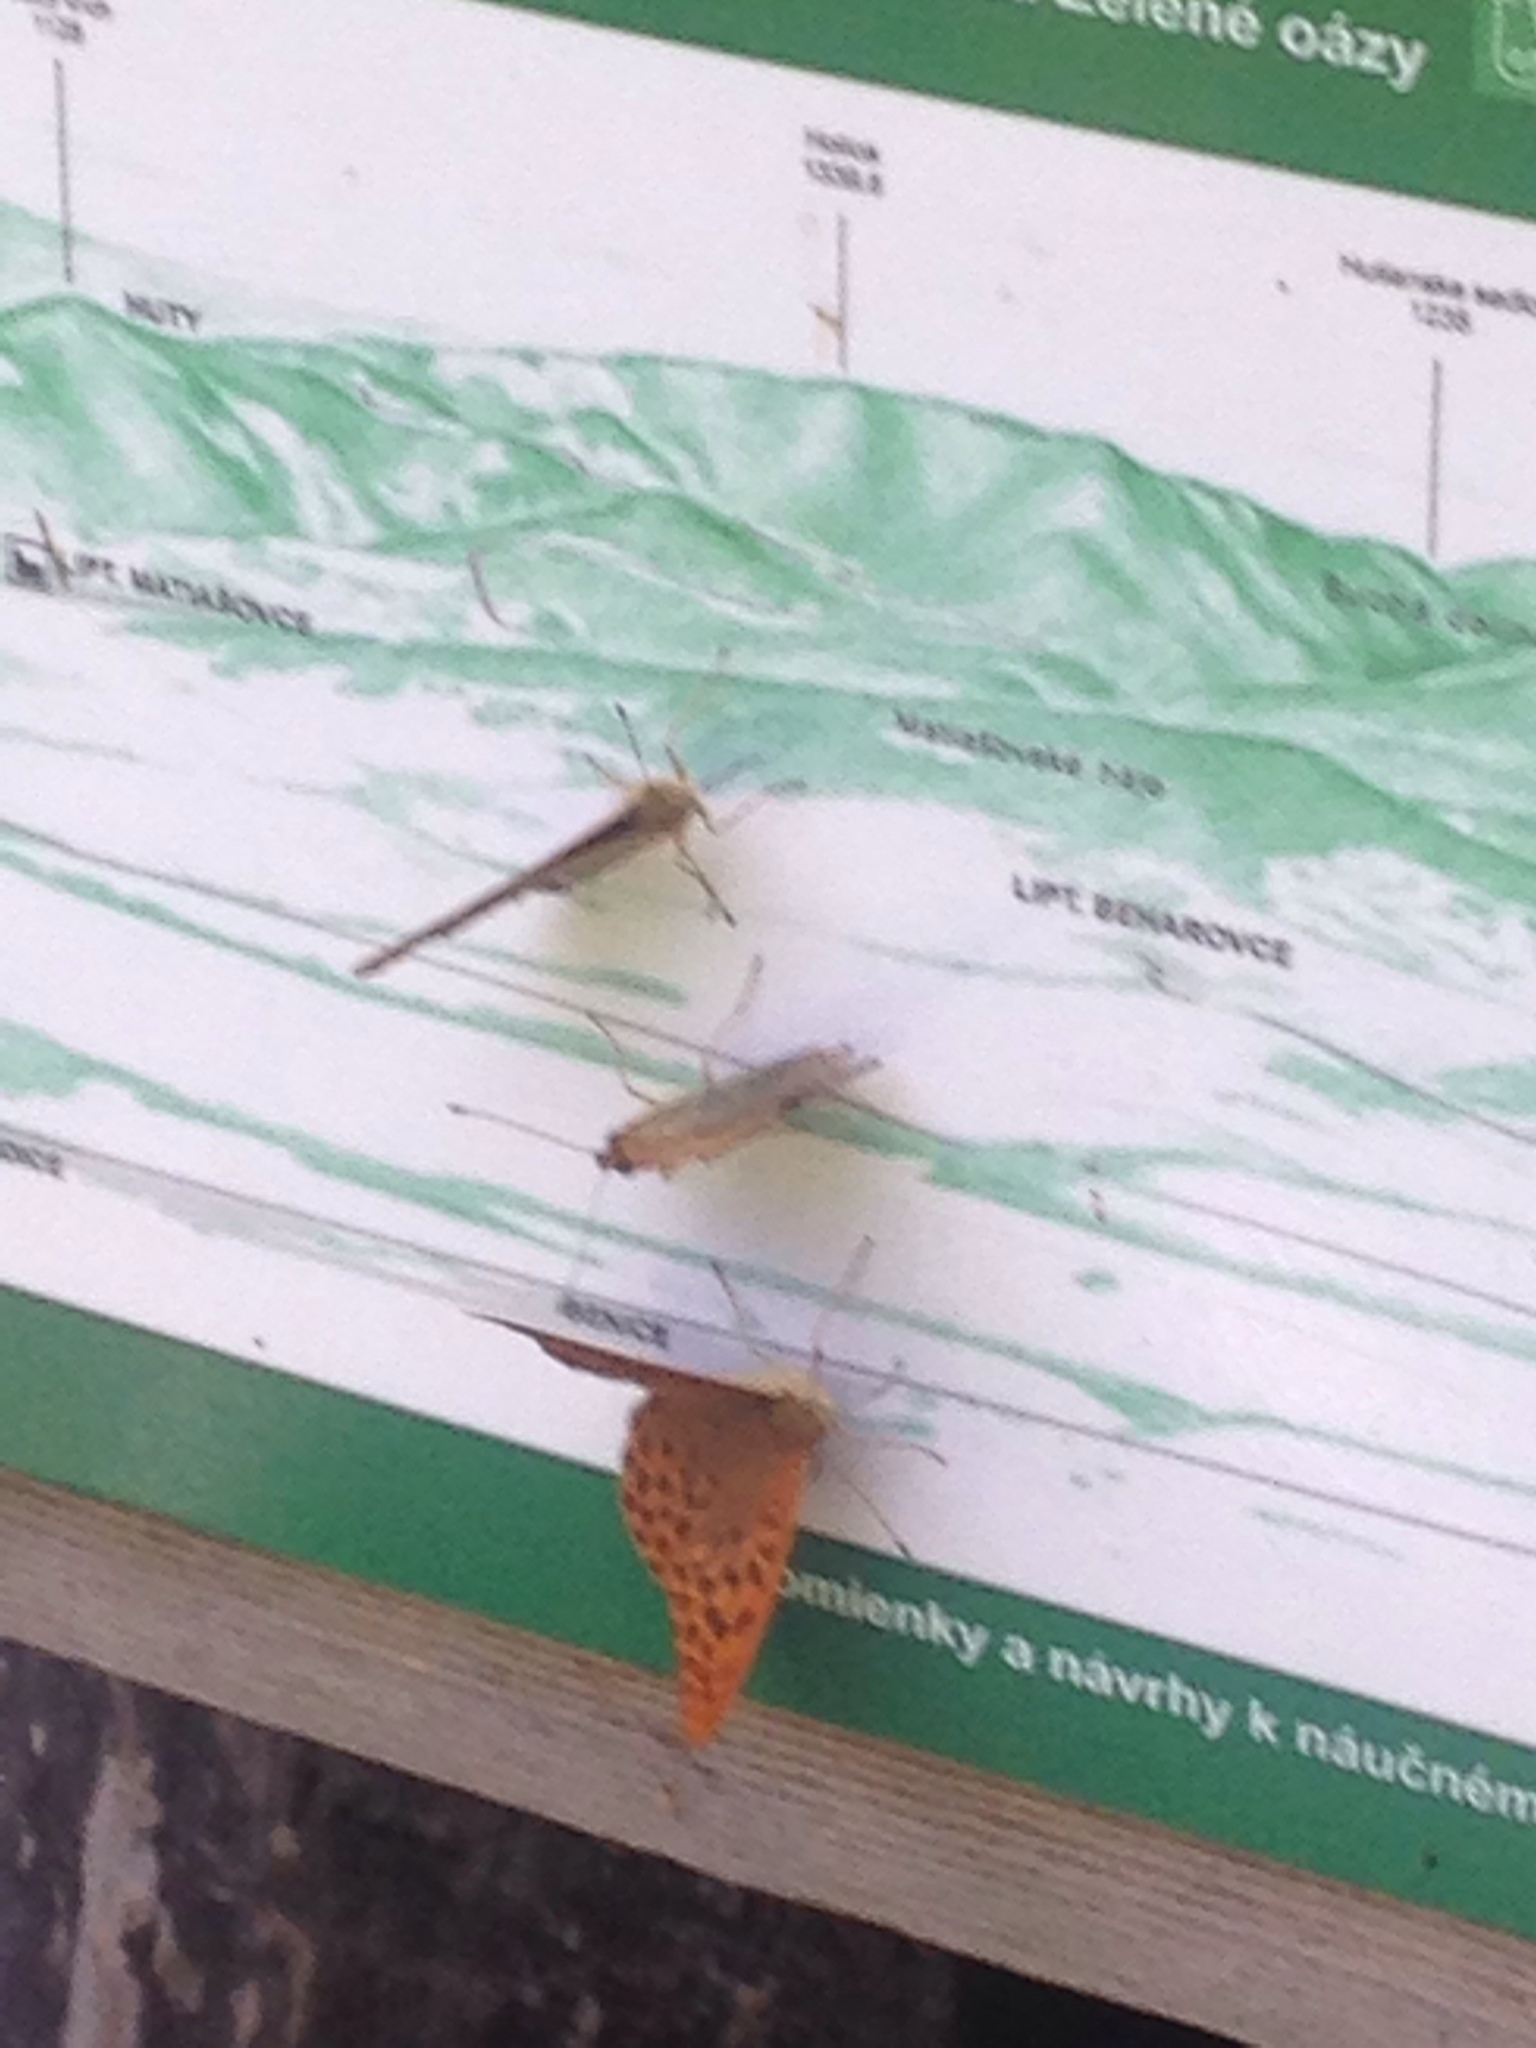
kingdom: Animalia
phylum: Arthropoda
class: Insecta
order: Lepidoptera
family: Nymphalidae
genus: Argynnis
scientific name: Argynnis paphia
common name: Silver-washed fritillary
